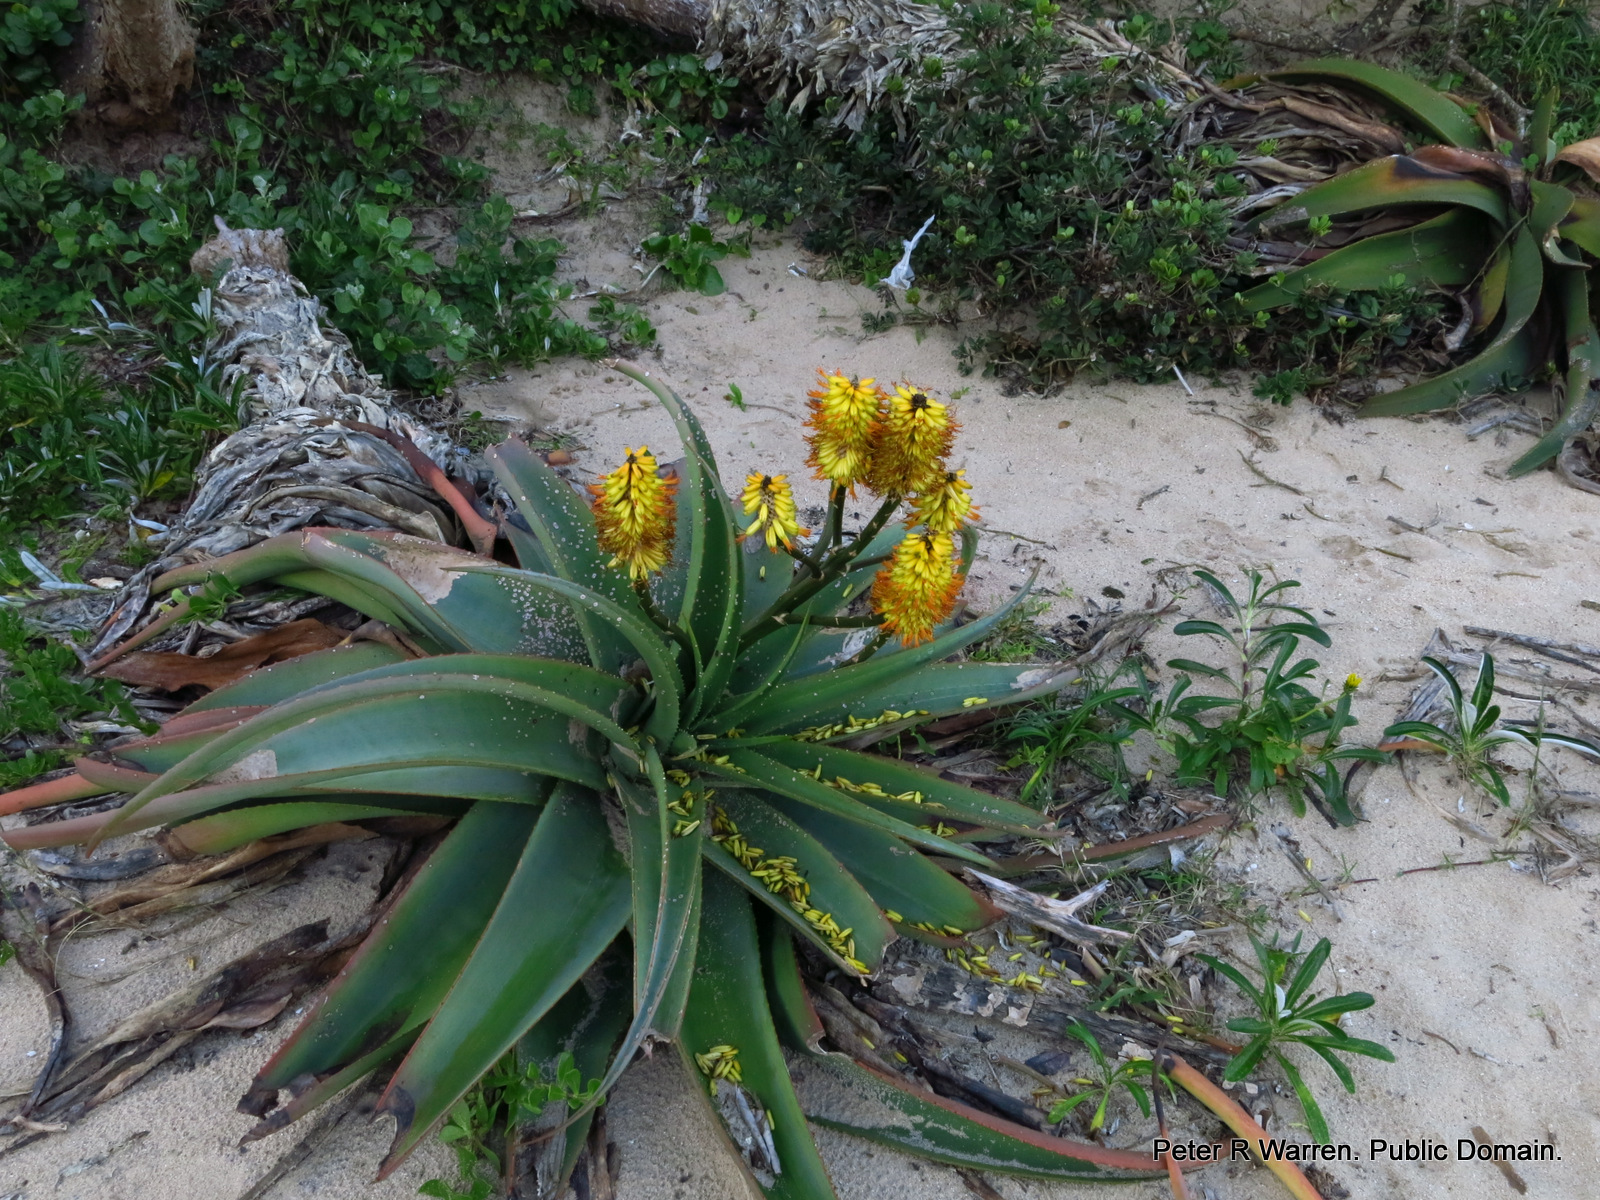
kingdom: Plantae
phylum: Tracheophyta
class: Liliopsida
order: Asparagales
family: Asphodelaceae
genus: Aloe
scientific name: Aloe thraskii
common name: Coast aloe
